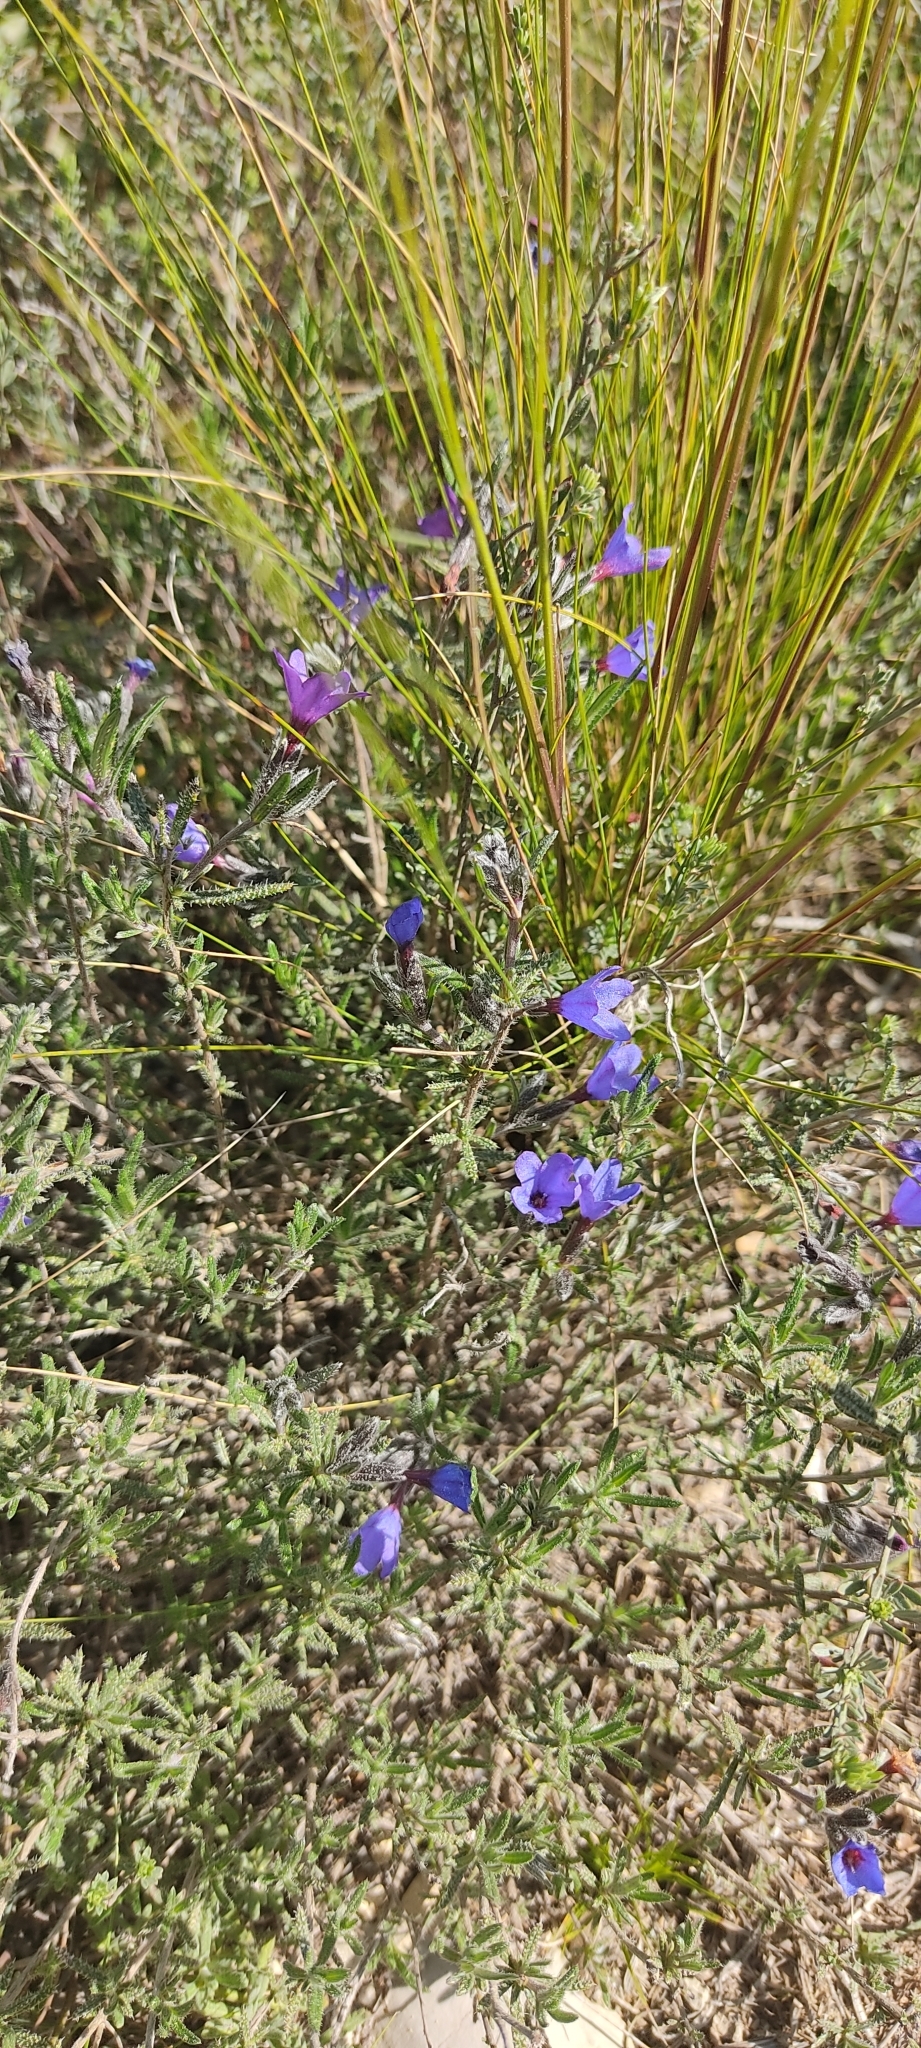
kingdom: Plantae
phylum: Tracheophyta
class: Magnoliopsida
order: Boraginales
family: Boraginaceae
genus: Lithodora
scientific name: Lithodora fruticosa
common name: Shrubby gromwell
